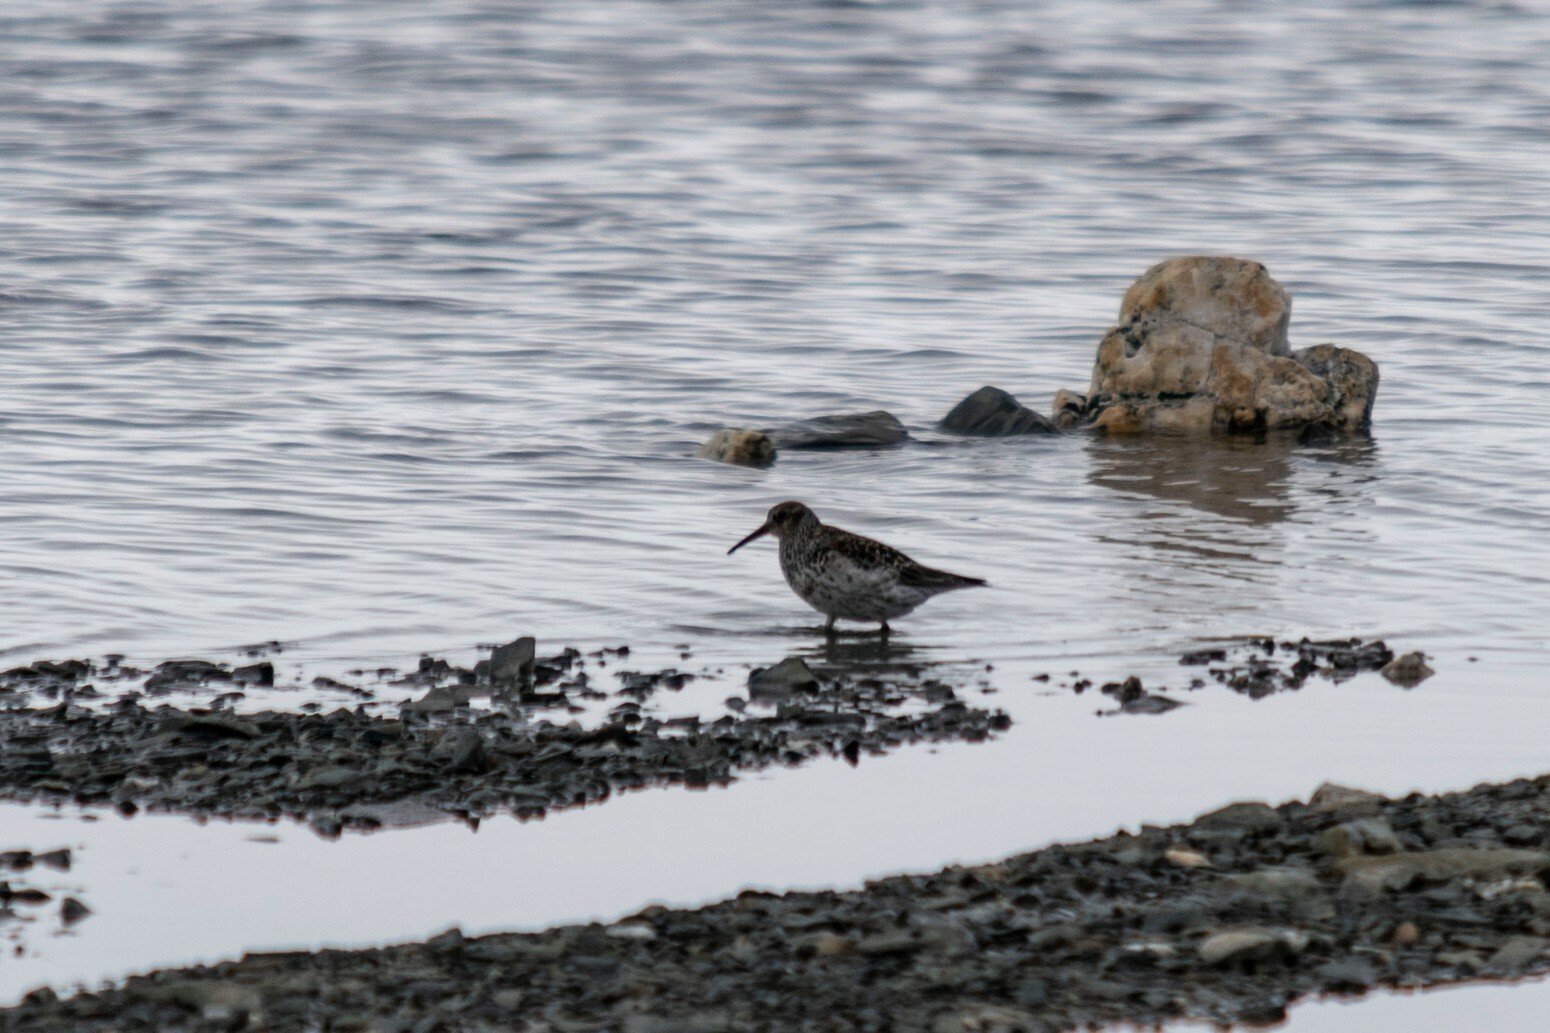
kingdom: Animalia
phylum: Chordata
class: Aves
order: Charadriiformes
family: Scolopacidae
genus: Calidris
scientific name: Calidris maritima
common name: Purple sandpiper
